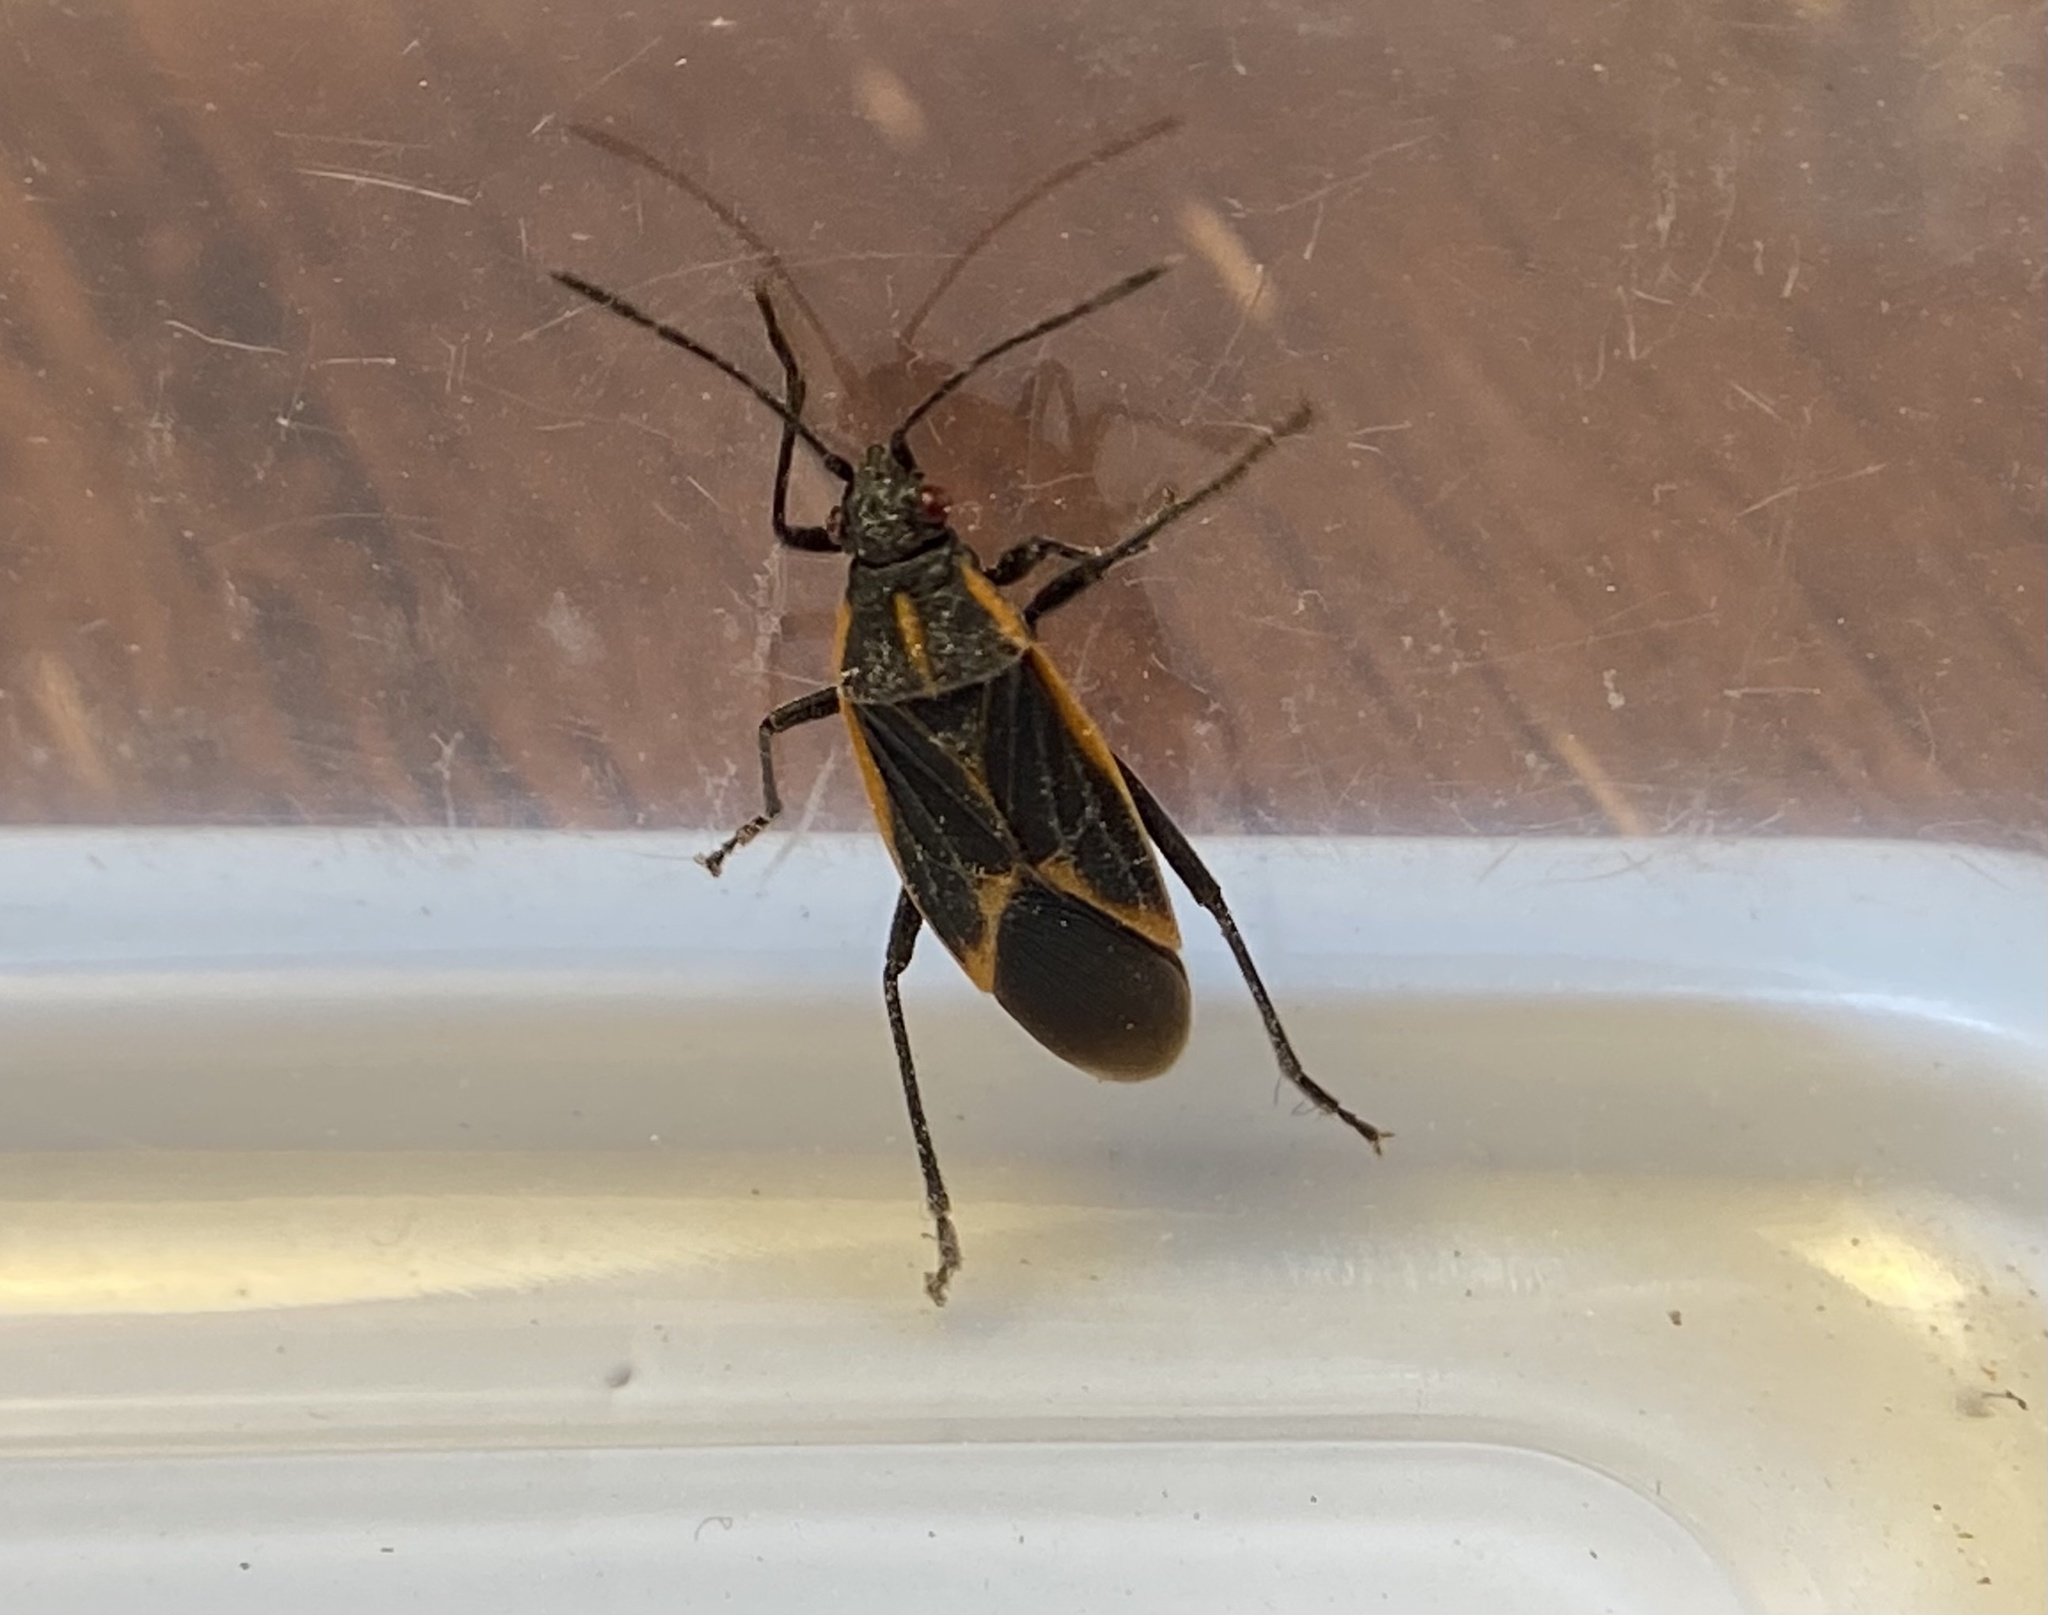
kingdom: Animalia
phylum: Arthropoda
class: Insecta
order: Hemiptera
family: Rhopalidae
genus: Boisea
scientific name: Boisea trivittata
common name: Boxelder bug
